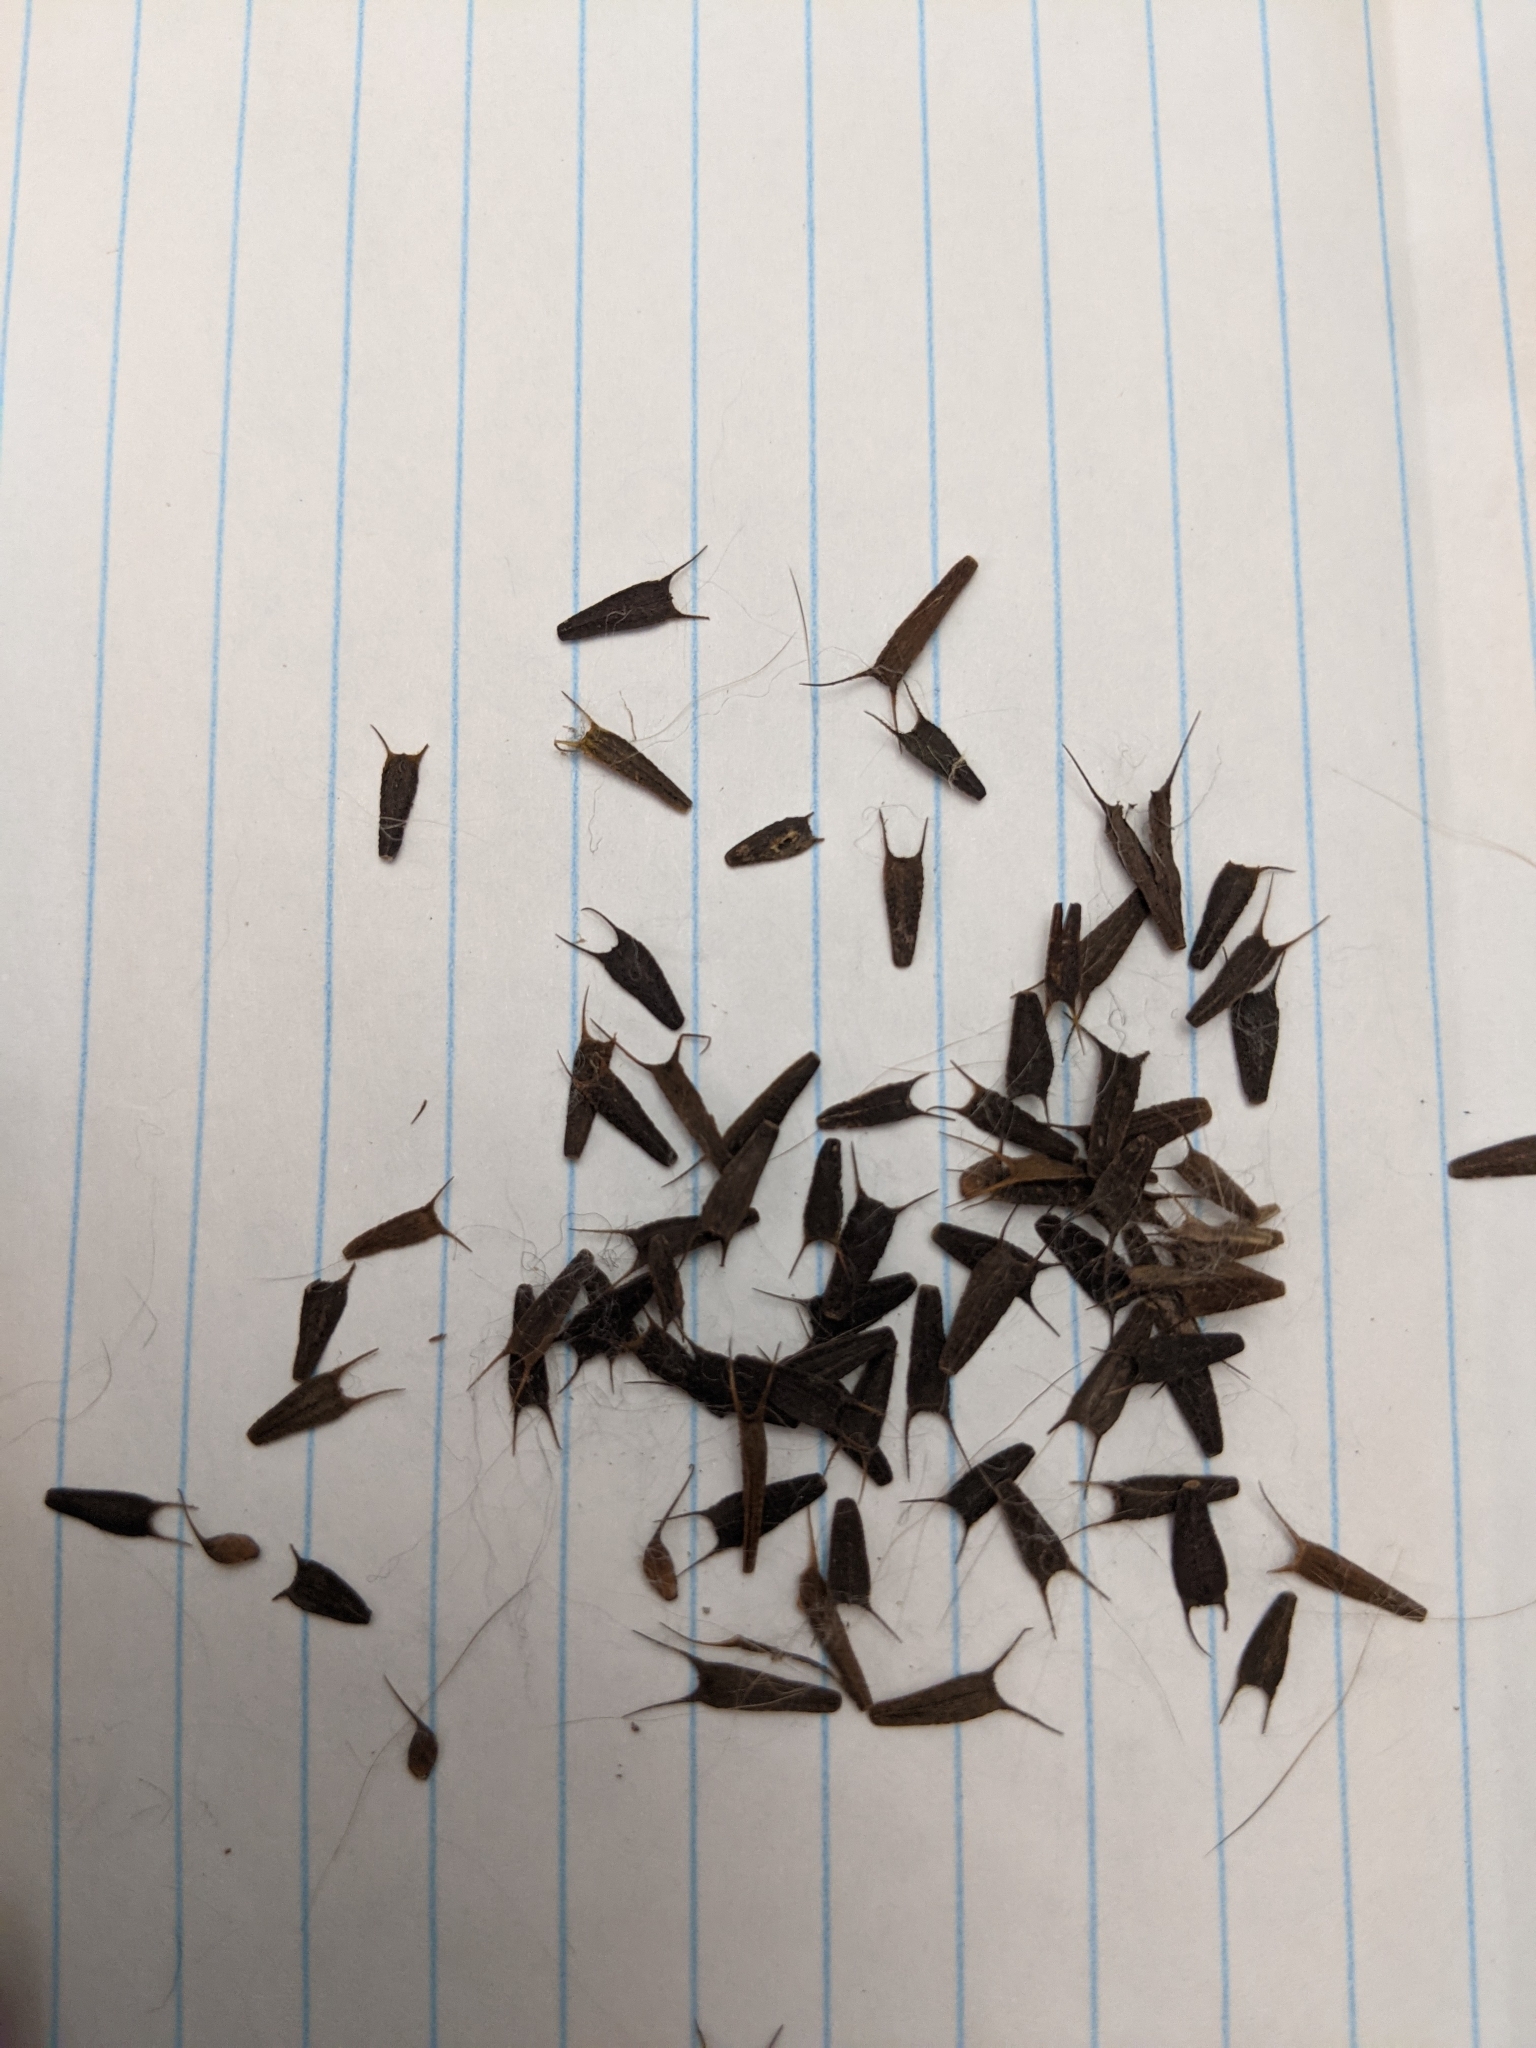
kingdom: Plantae
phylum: Tracheophyta
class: Magnoliopsida
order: Asterales
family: Asteraceae
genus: Bidens
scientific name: Bidens frondosa
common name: Beggarticks
